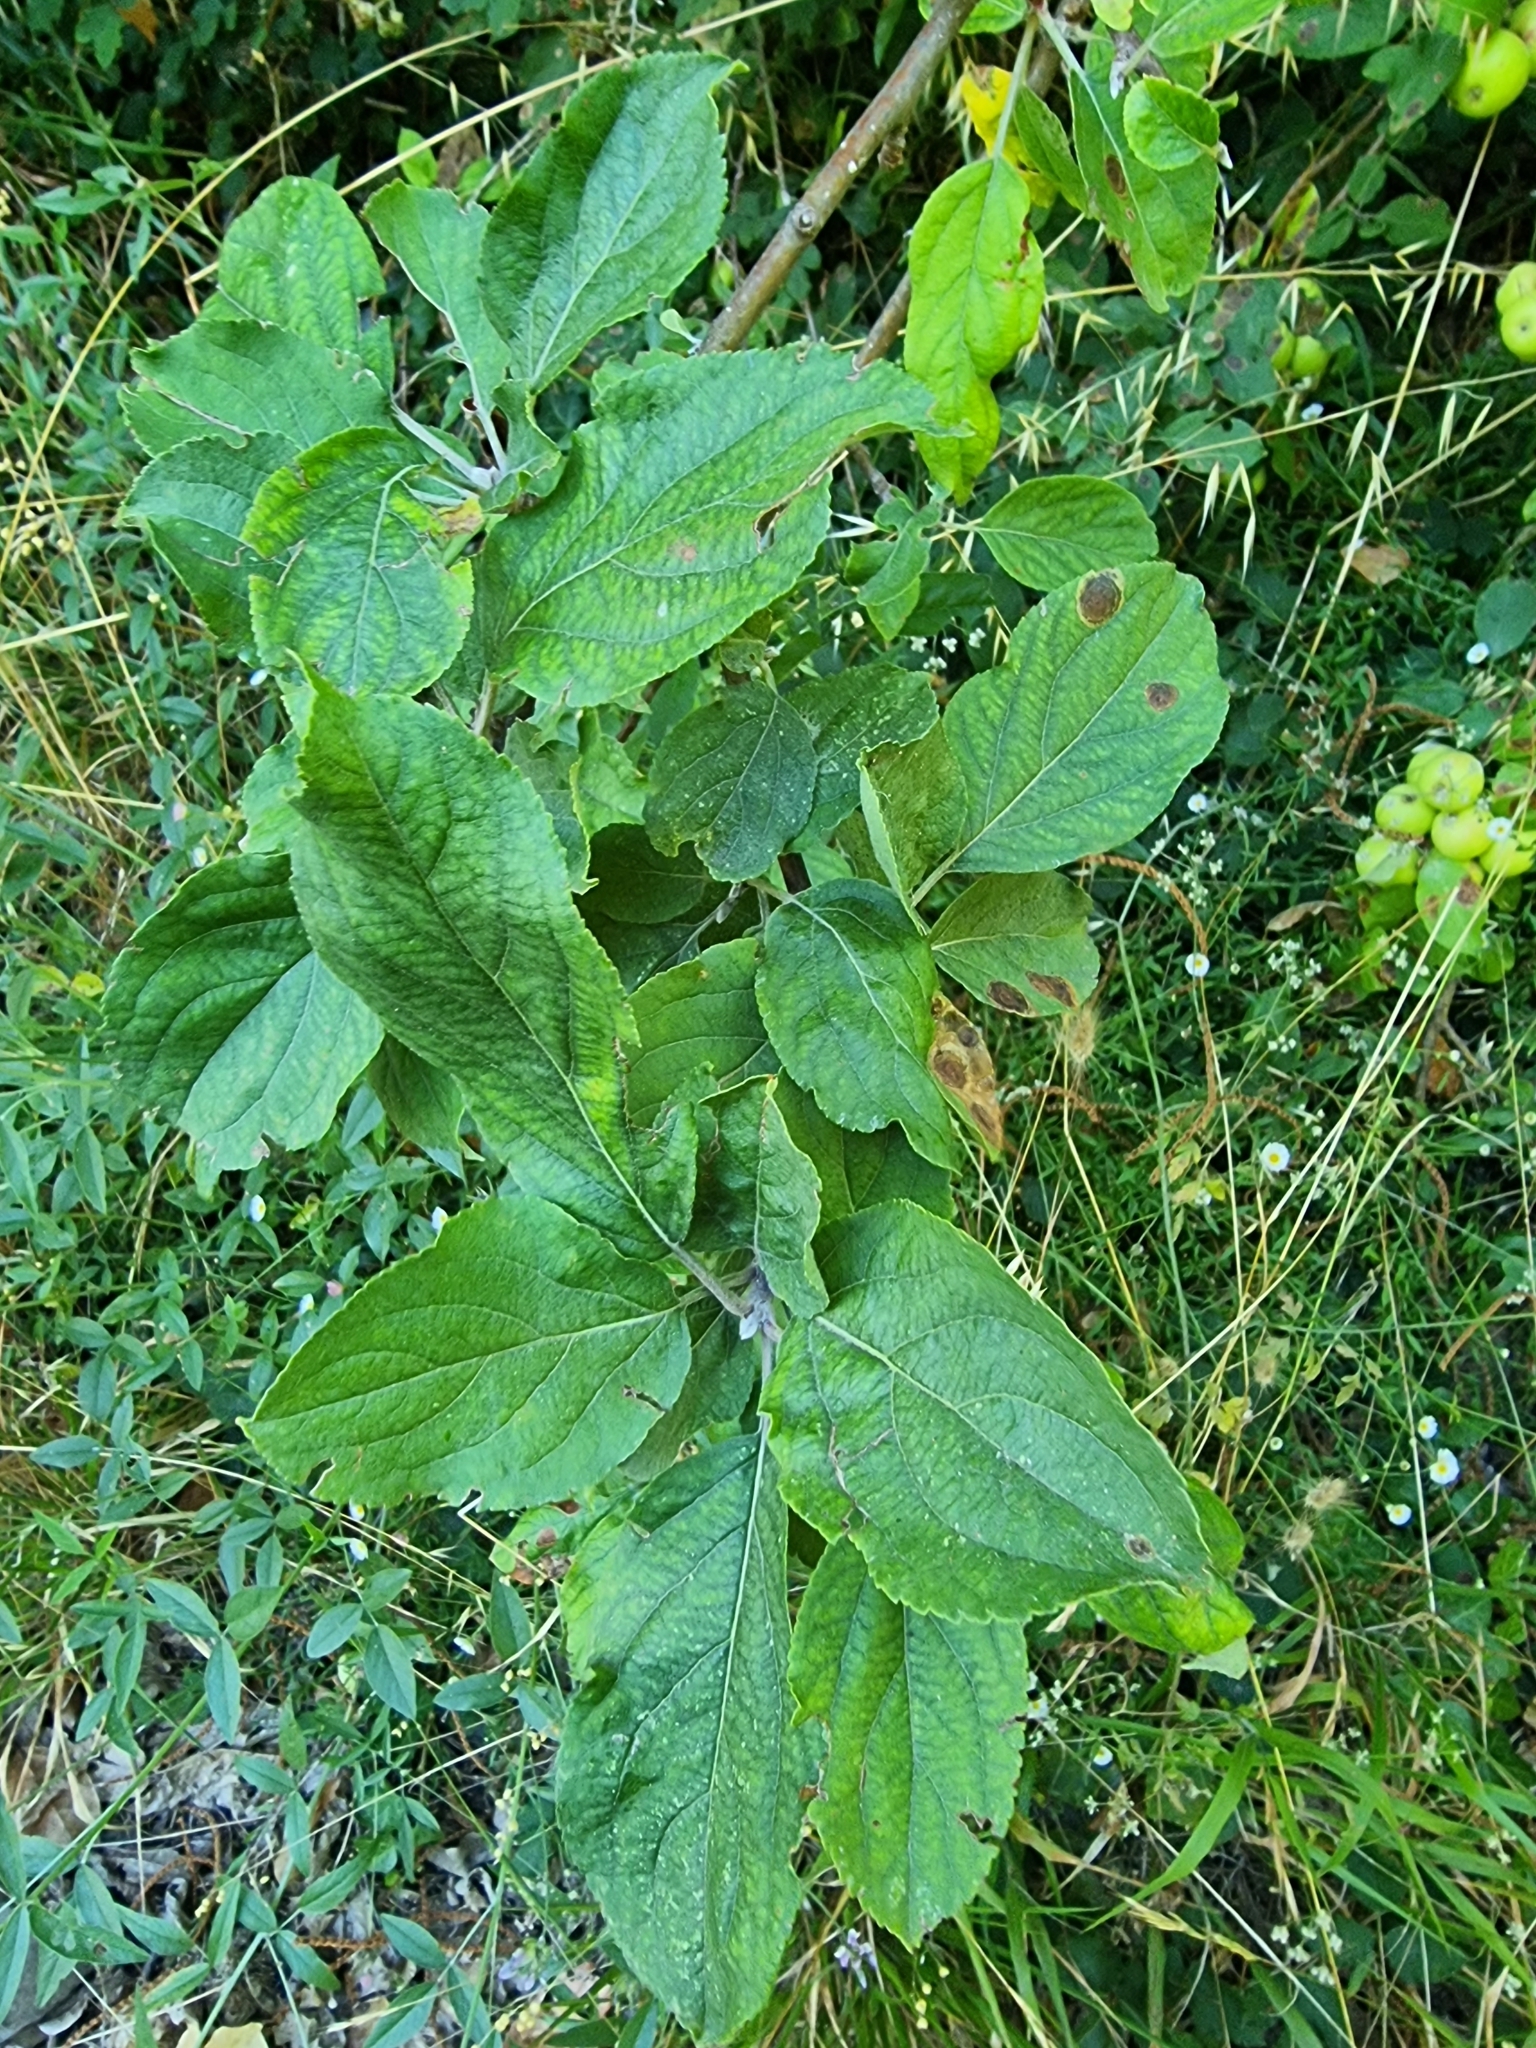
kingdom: Plantae
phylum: Tracheophyta
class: Magnoliopsida
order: Rosales
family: Rosaceae
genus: Malus
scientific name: Malus domestica
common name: Apple
